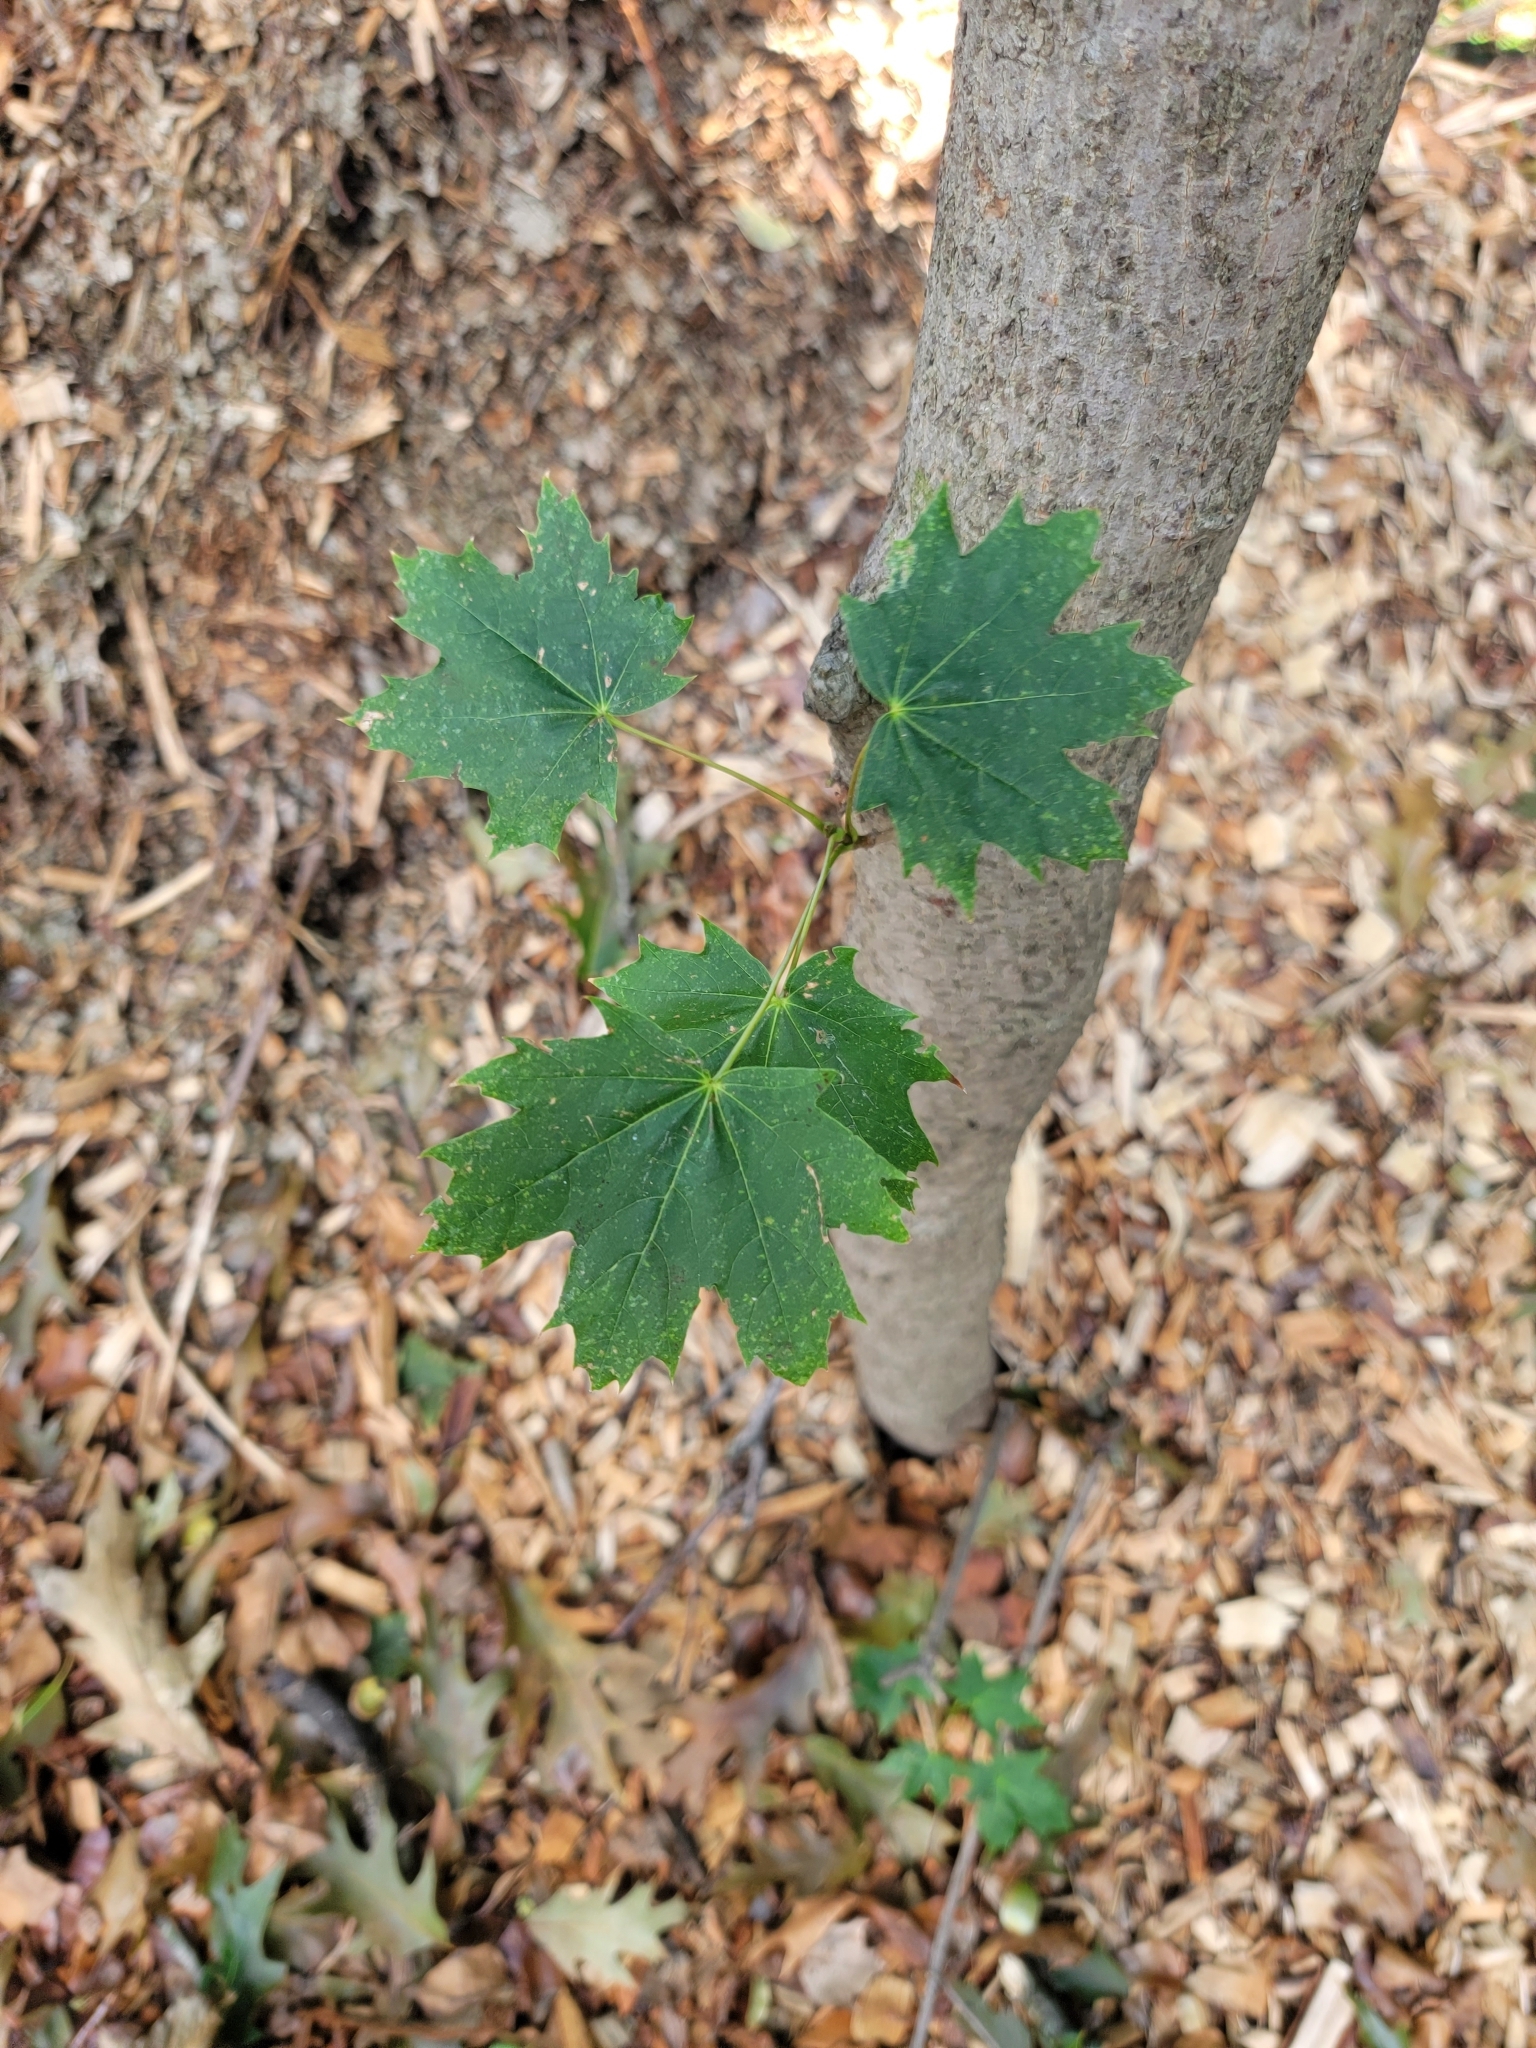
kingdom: Plantae
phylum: Tracheophyta
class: Magnoliopsida
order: Sapindales
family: Sapindaceae
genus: Acer
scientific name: Acer platanoides
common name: Norway maple
